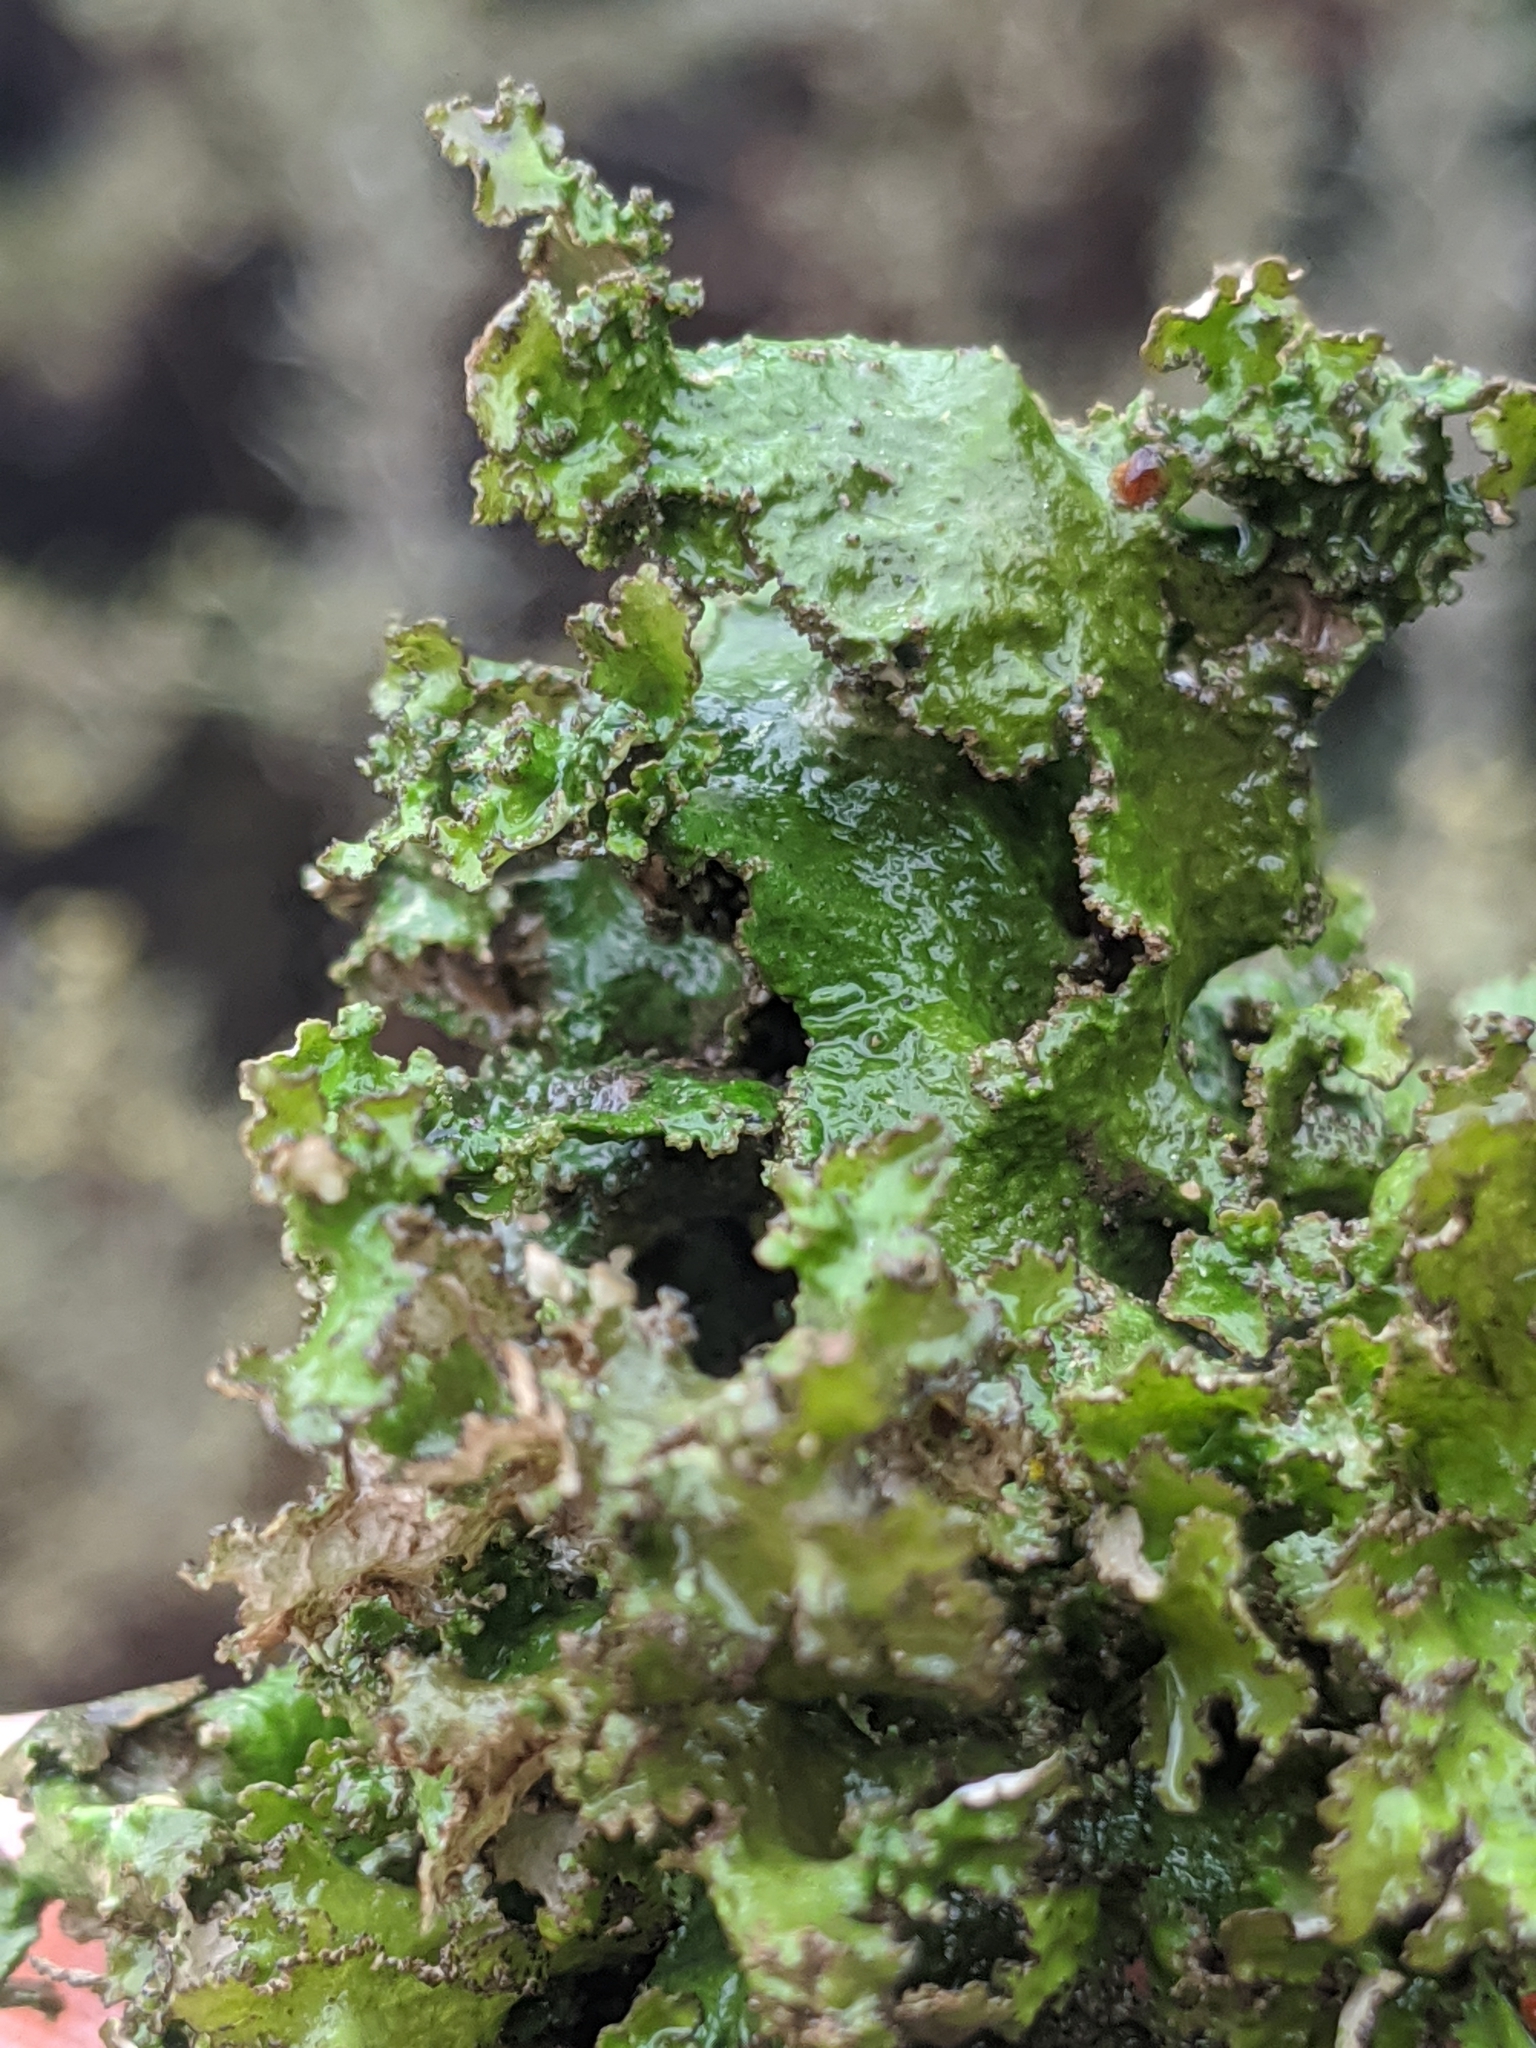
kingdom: Fungi
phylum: Ascomycota
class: Lecanoromycetes
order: Lecanorales
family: Parmeliaceae
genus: Nephromopsis
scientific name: Nephromopsis orbata
